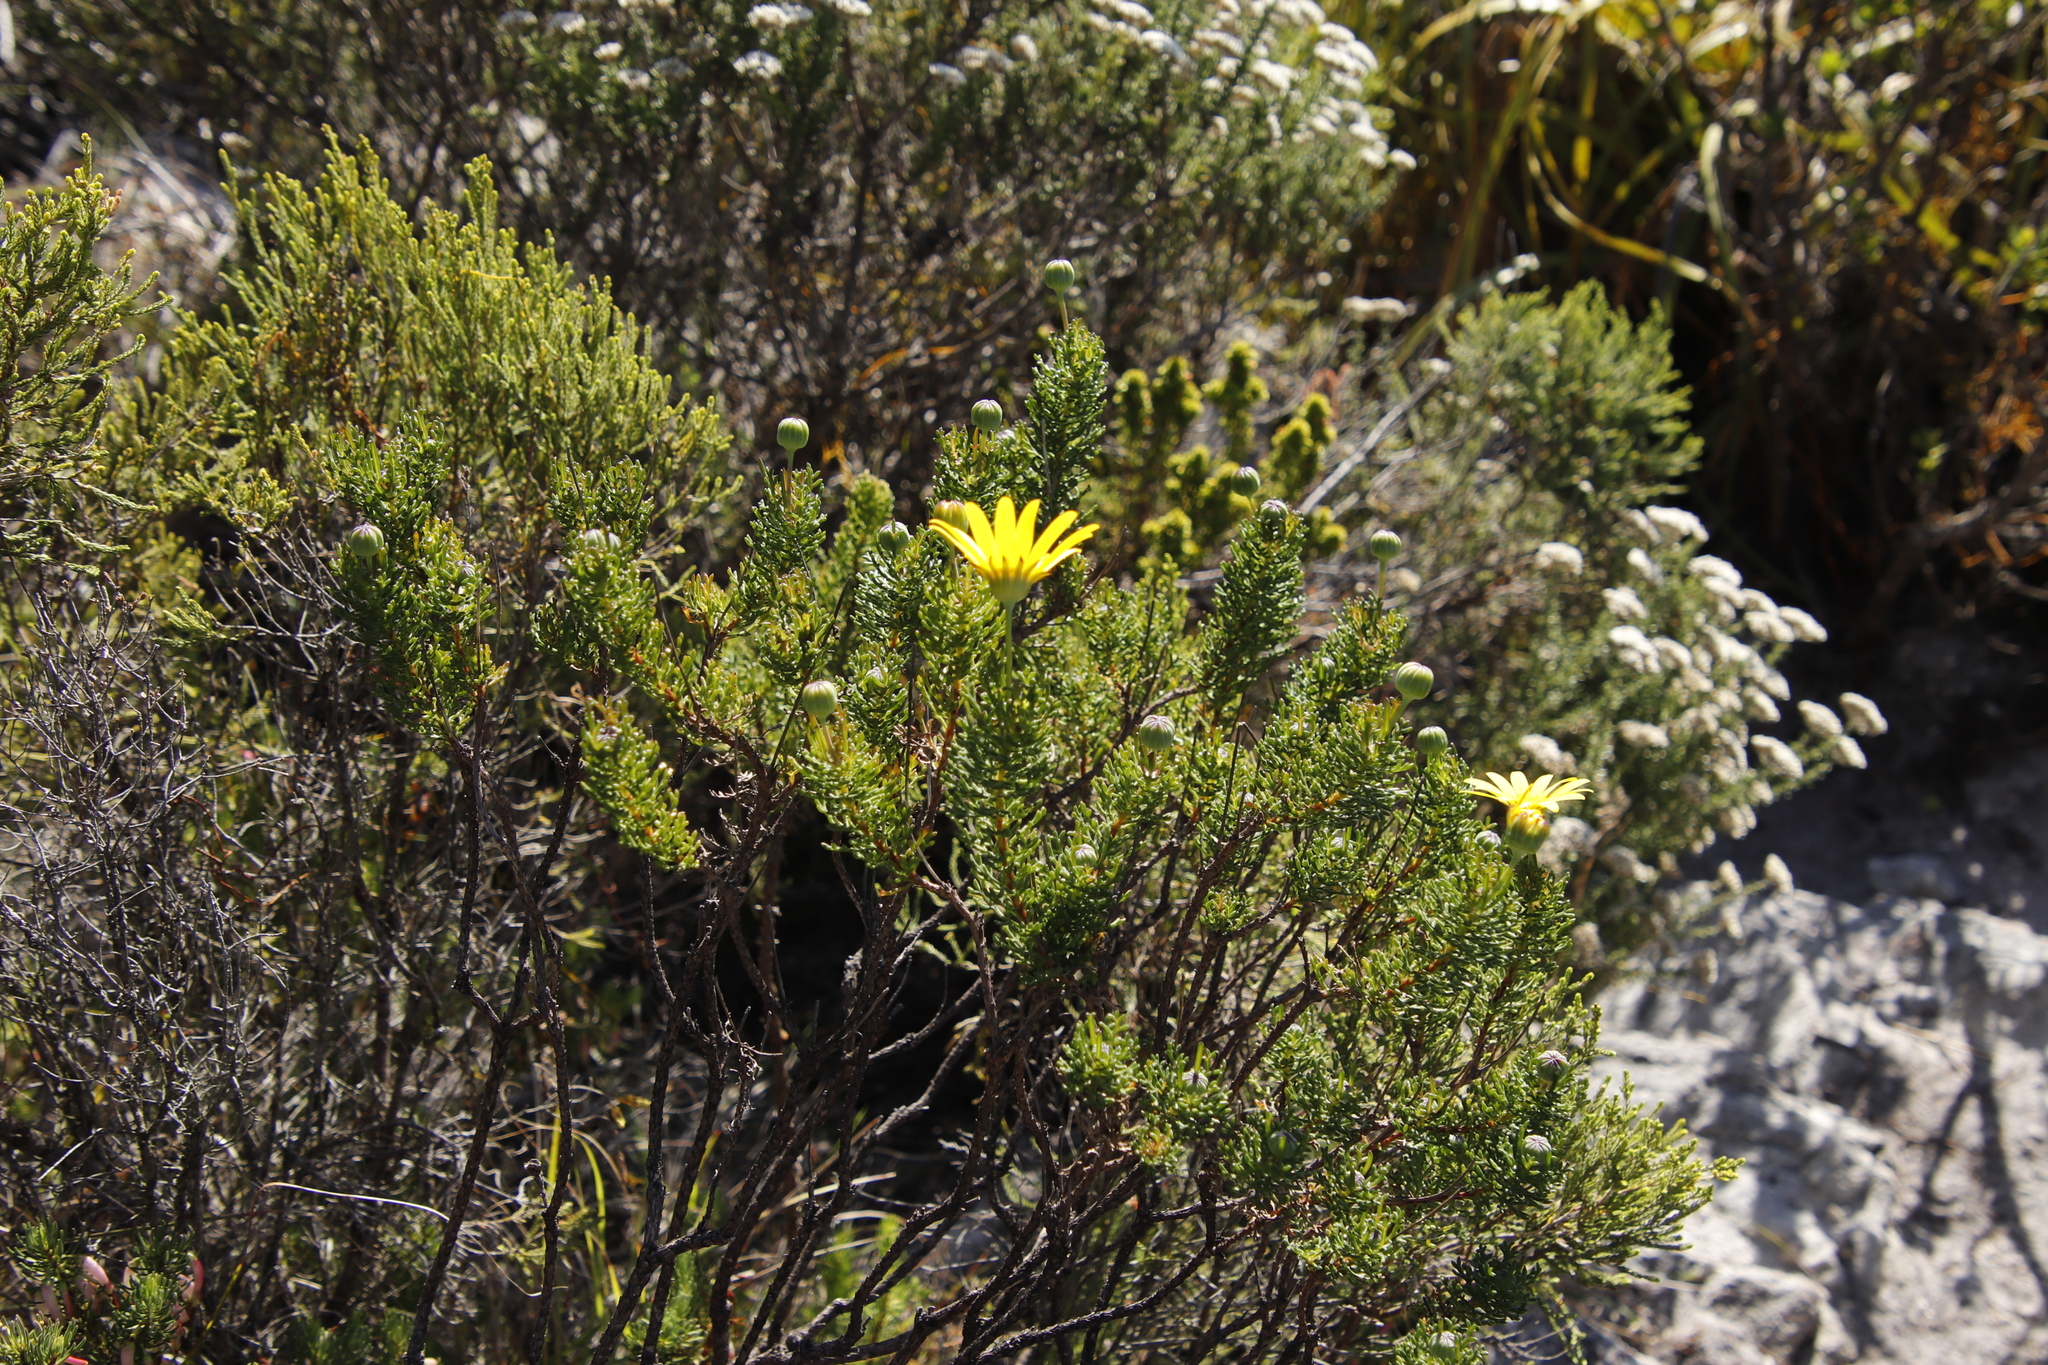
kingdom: Plantae
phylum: Tracheophyta
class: Magnoliopsida
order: Asterales
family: Asteraceae
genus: Euryops
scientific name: Euryops abrotanifolius
